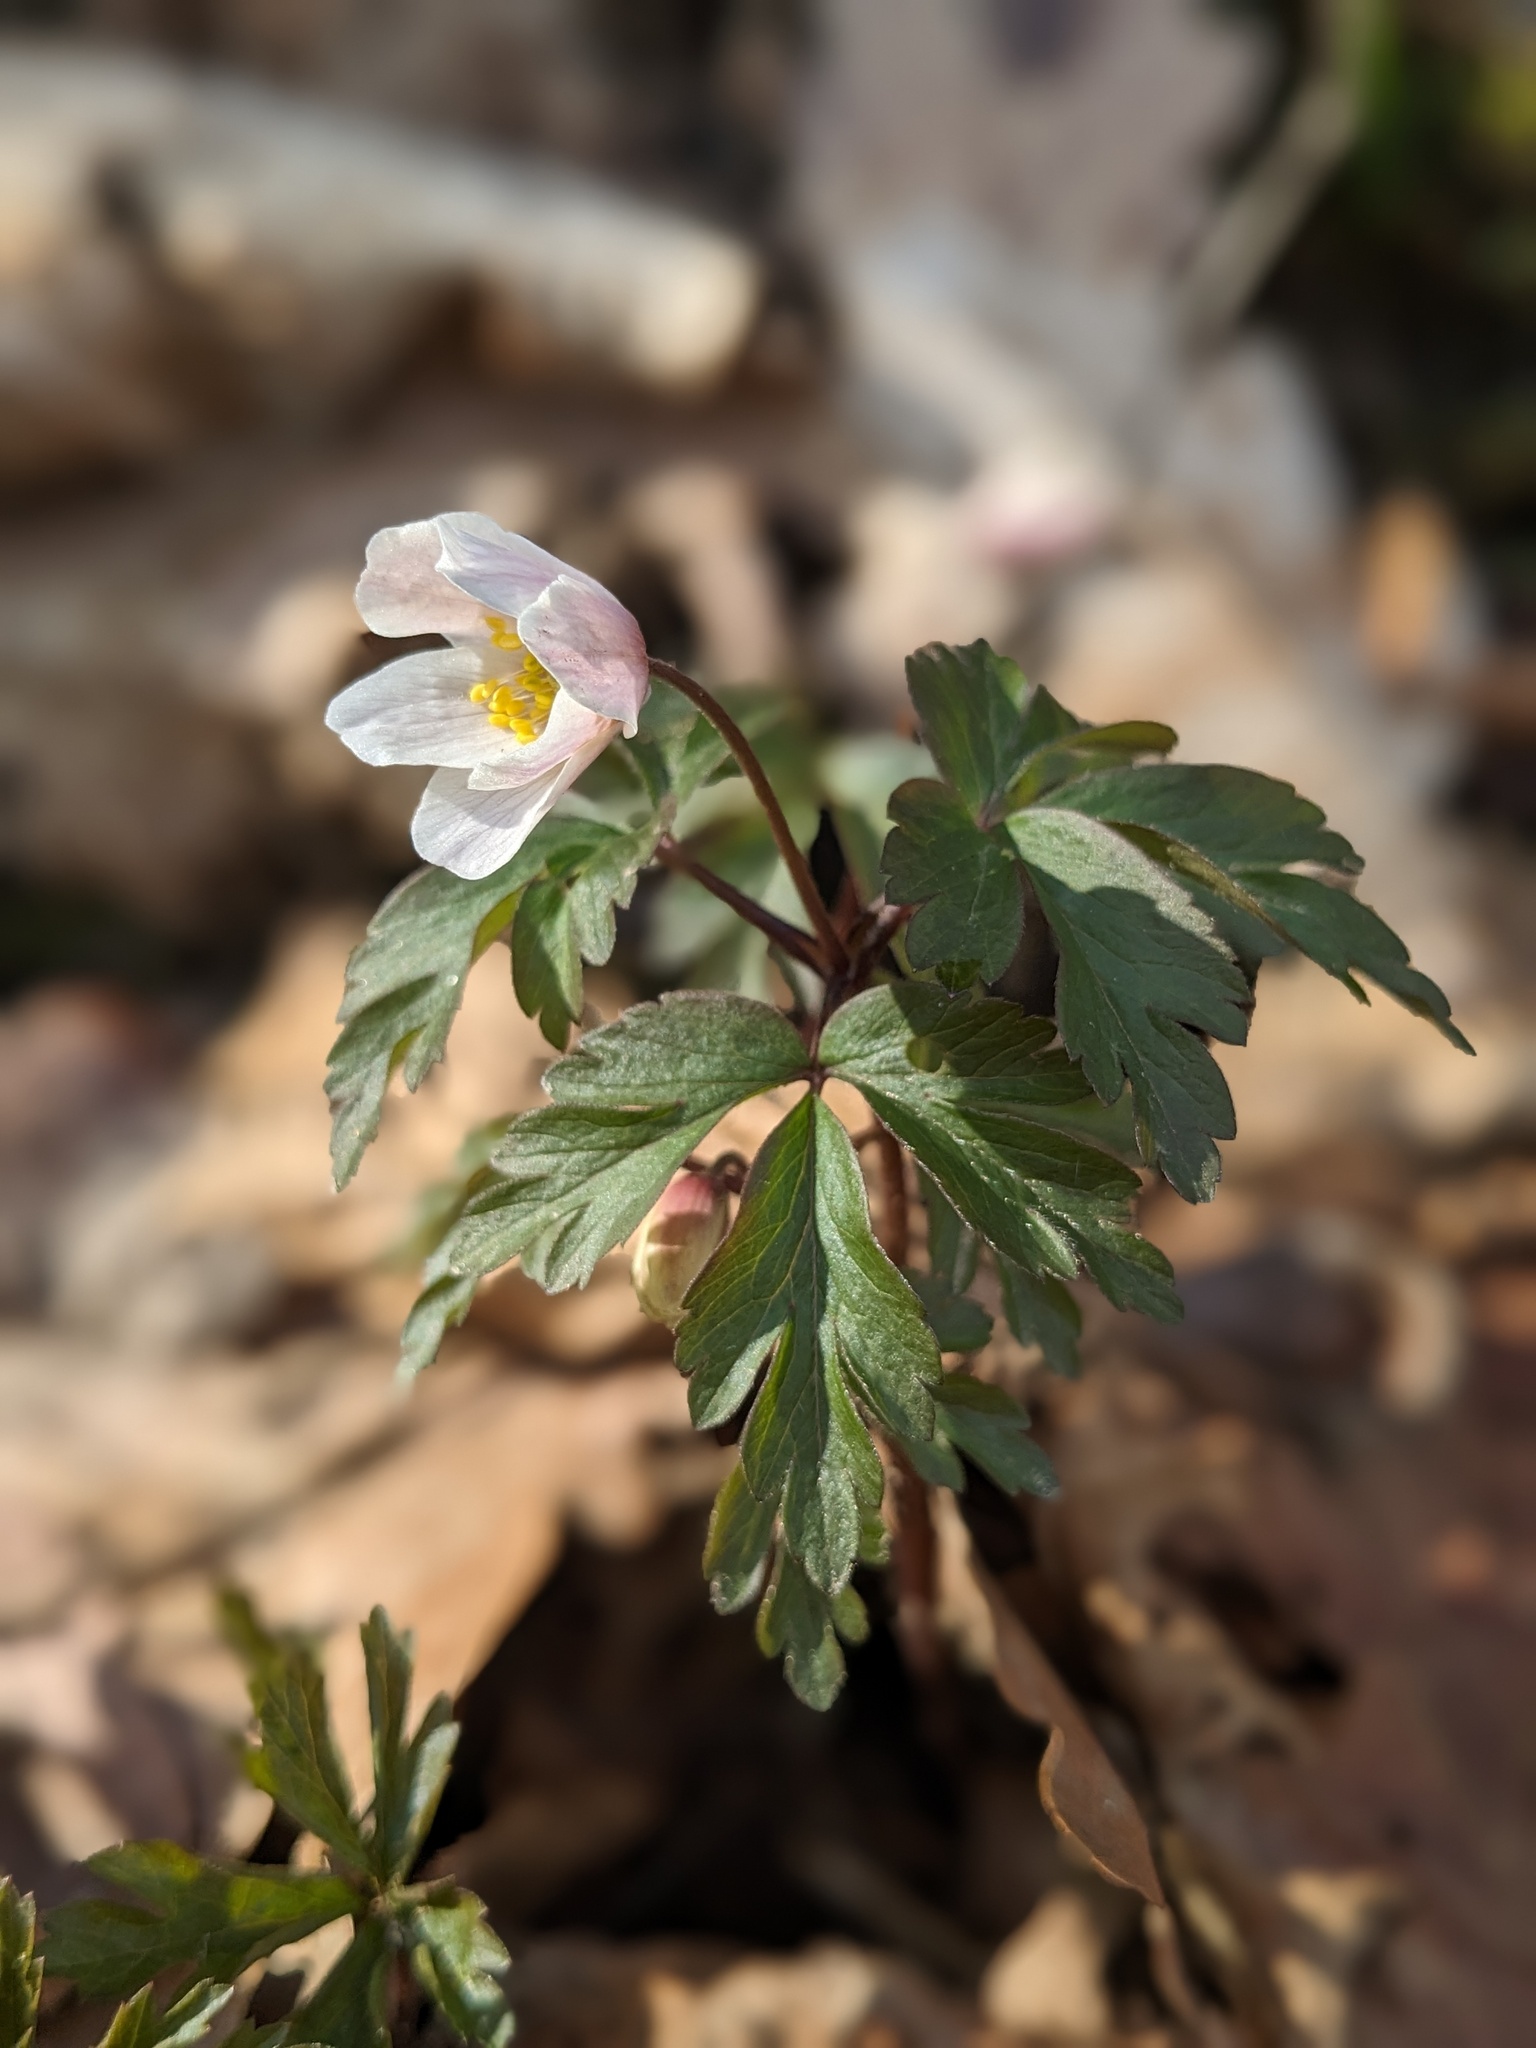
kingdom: Plantae
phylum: Tracheophyta
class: Magnoliopsida
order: Ranunculales
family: Ranunculaceae
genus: Anemone
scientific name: Anemone nemorosa
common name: Wood anemone
